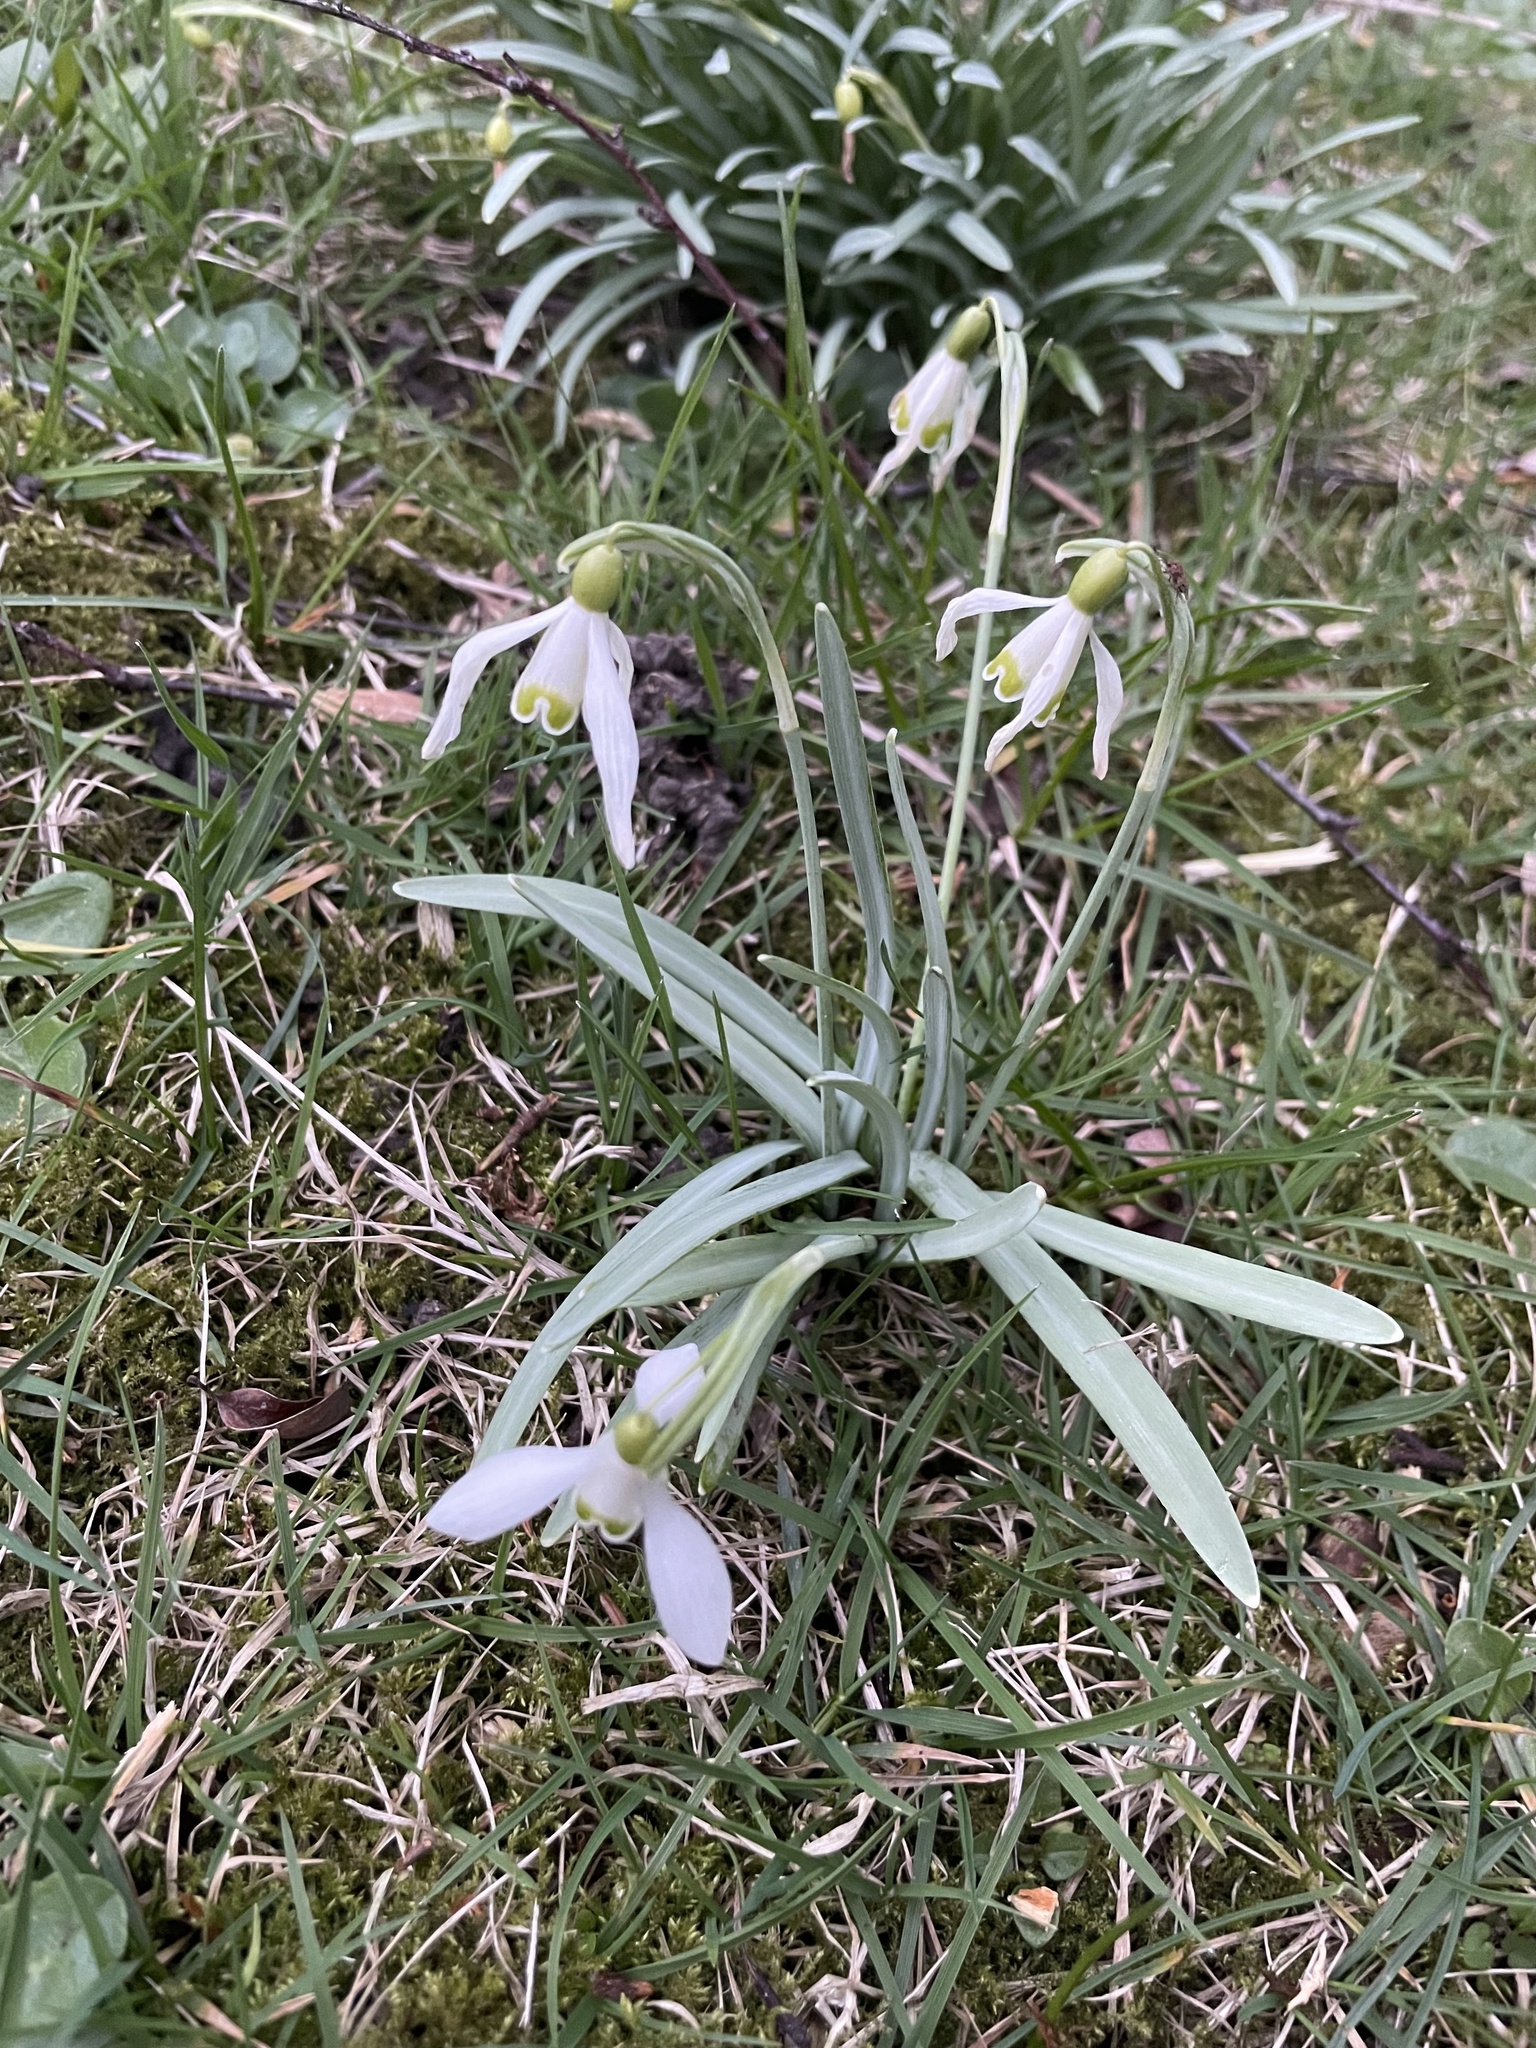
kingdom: Plantae
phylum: Tracheophyta
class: Liliopsida
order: Asparagales
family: Amaryllidaceae
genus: Galanthus
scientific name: Galanthus nivalis
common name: Snowdrop
